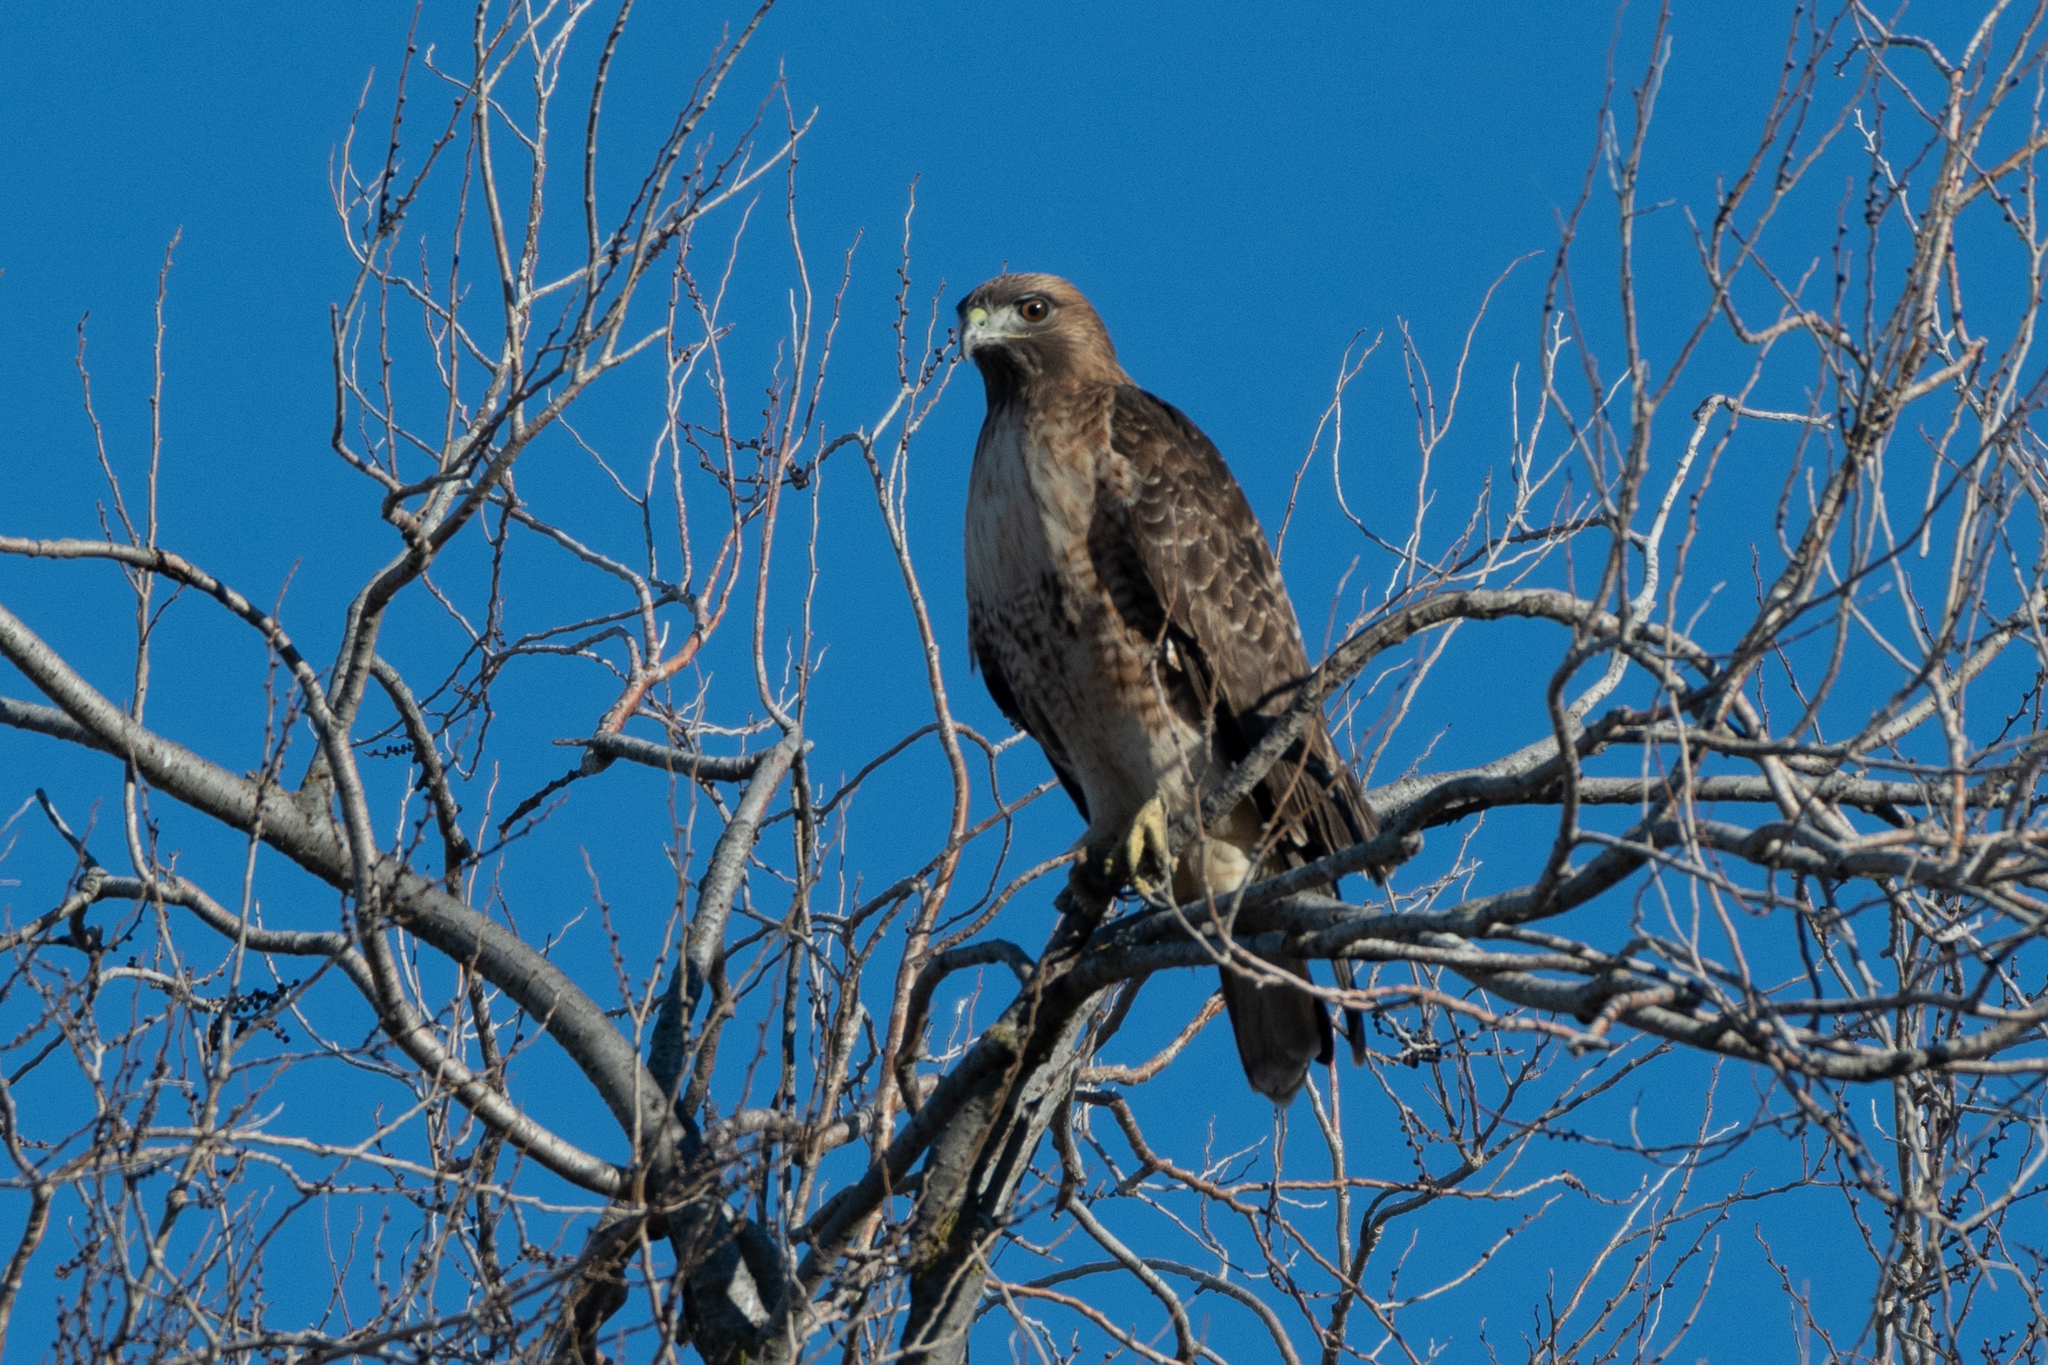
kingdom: Animalia
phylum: Chordata
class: Aves
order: Accipitriformes
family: Accipitridae
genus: Buteo
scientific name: Buteo jamaicensis
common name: Red-tailed hawk
